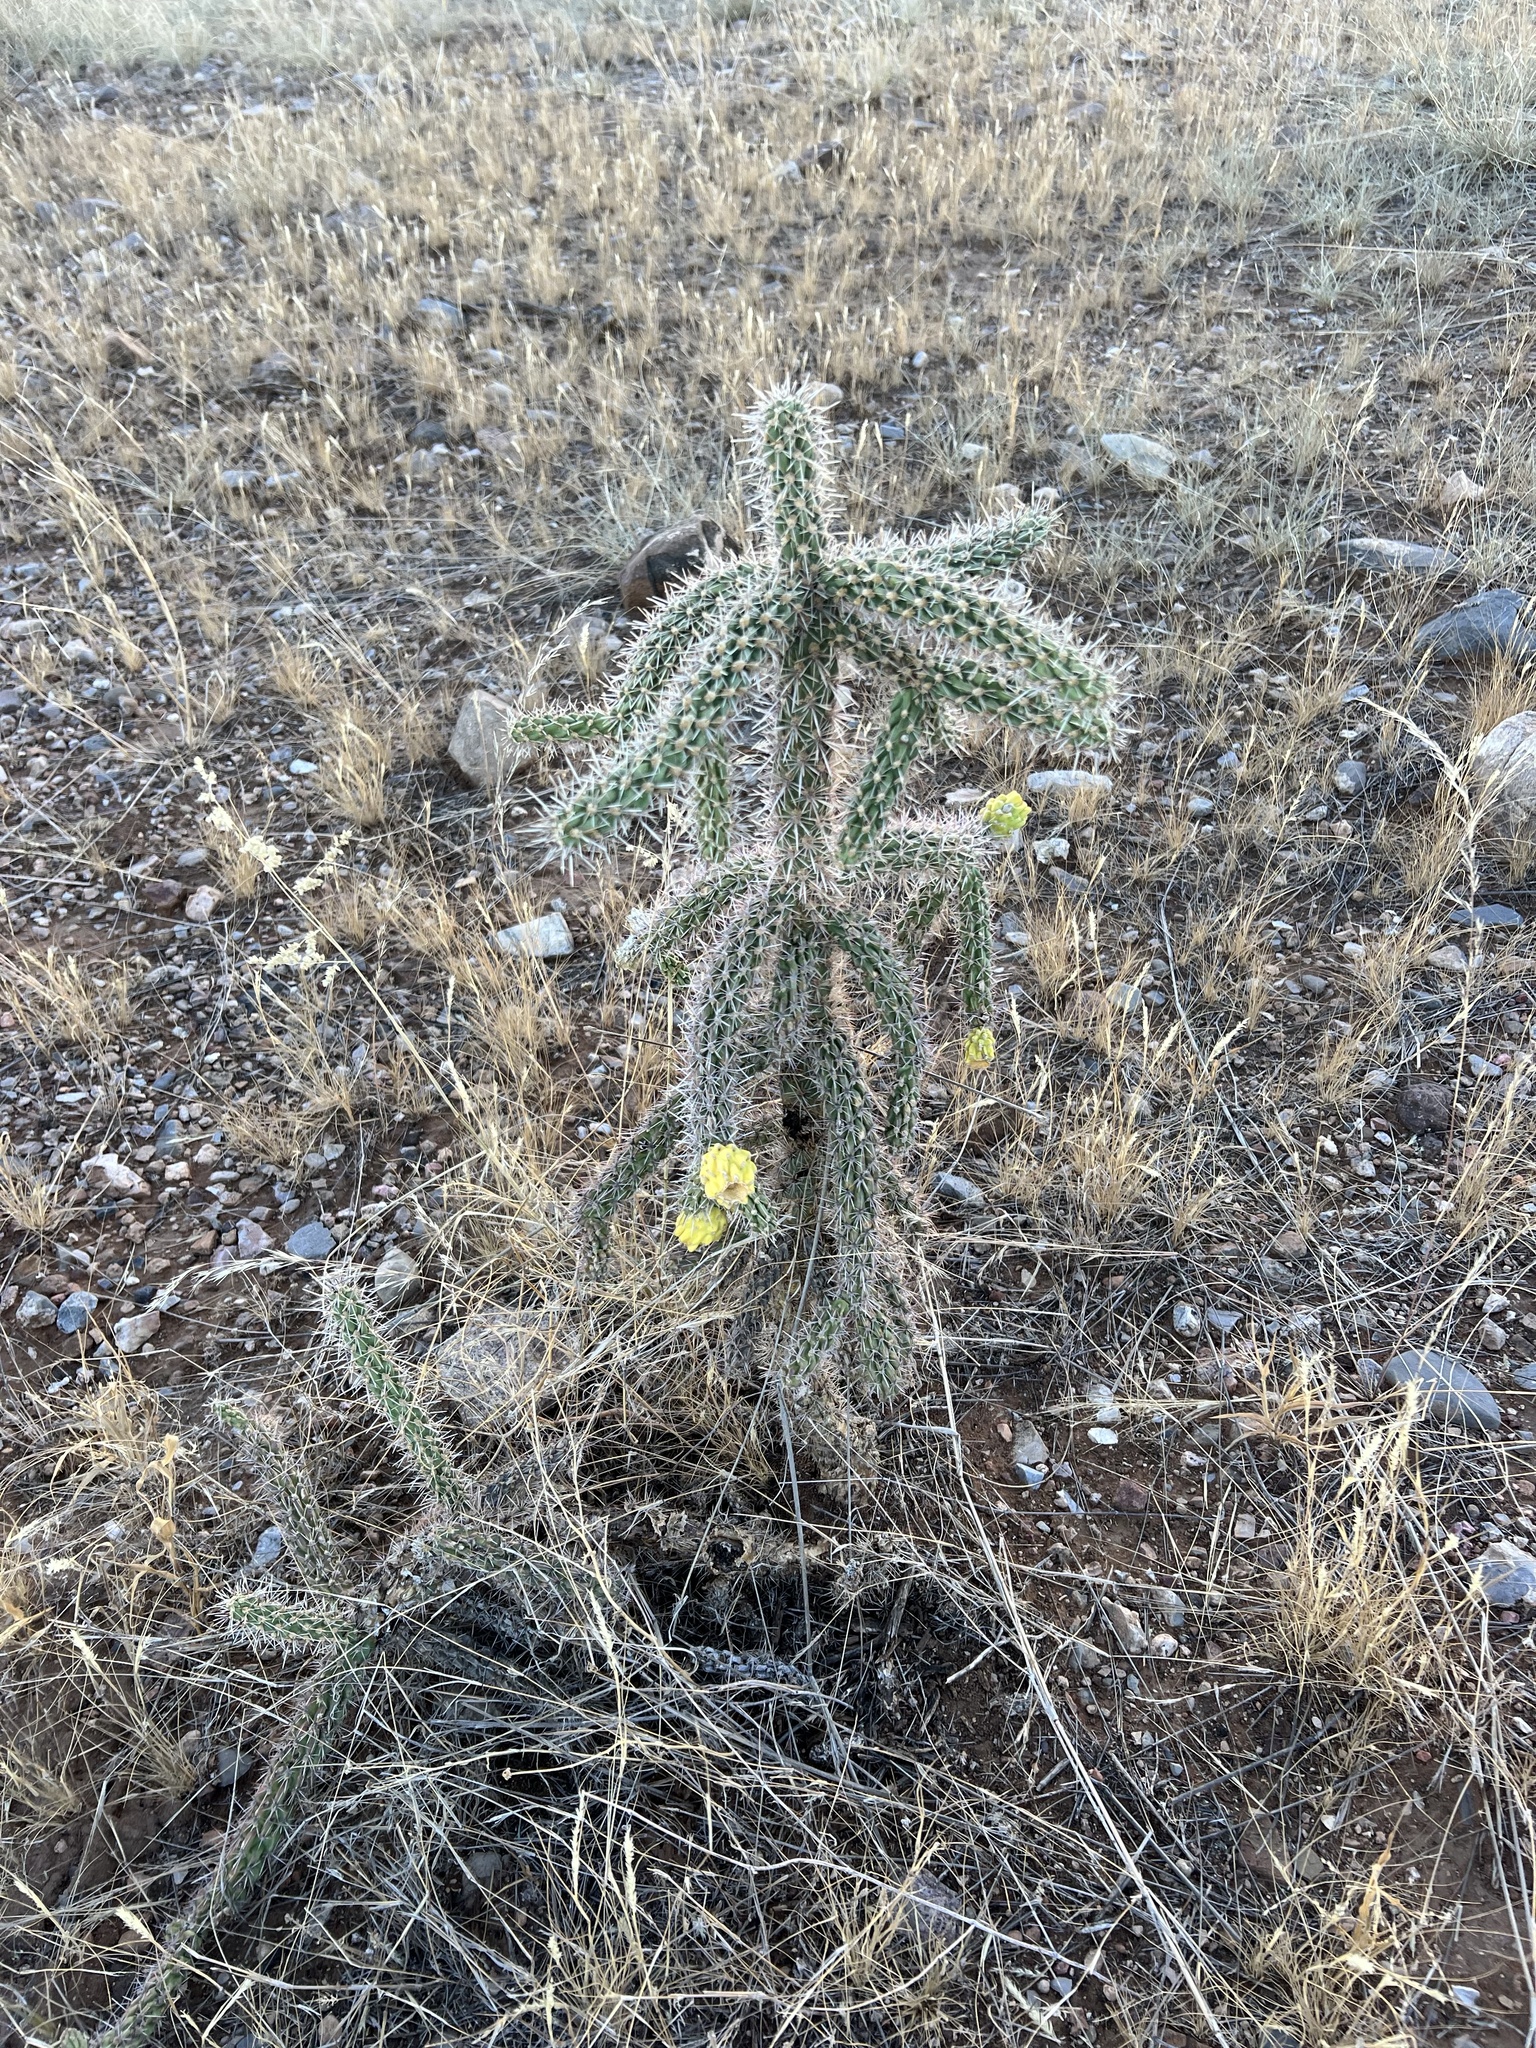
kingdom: Plantae
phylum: Tracheophyta
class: Magnoliopsida
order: Caryophyllales
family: Cactaceae
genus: Cylindropuntia
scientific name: Cylindropuntia imbricata
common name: Candelabrum cactus
